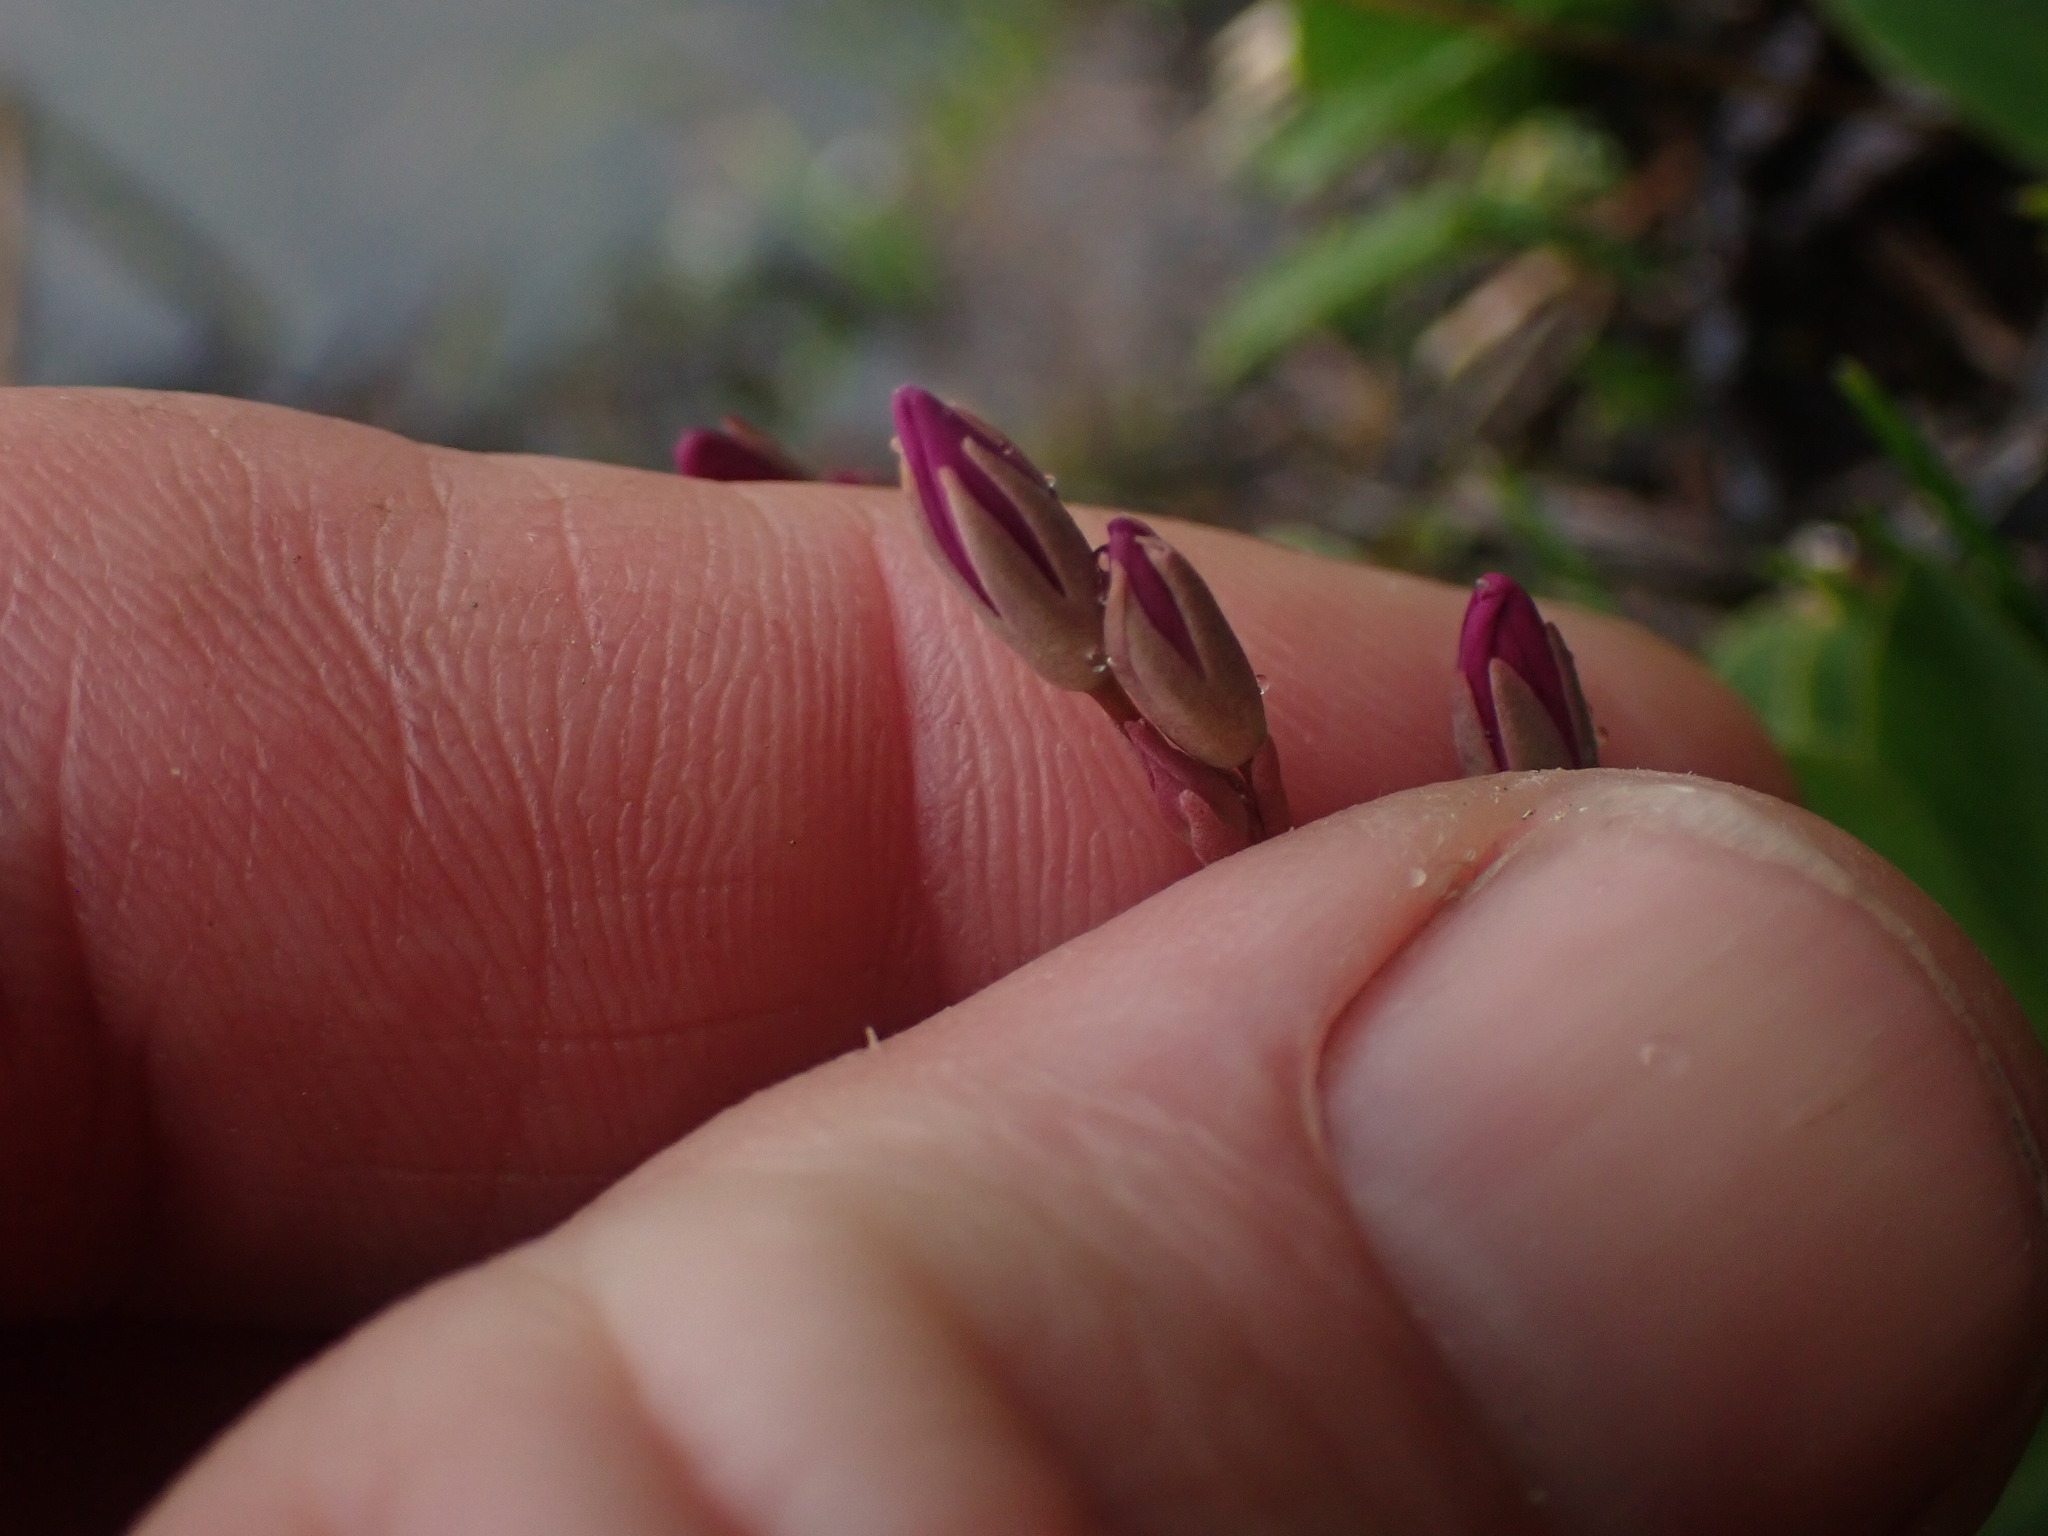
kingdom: Plantae
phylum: Tracheophyta
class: Magnoliopsida
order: Ericales
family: Primulaceae
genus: Dodecatheon
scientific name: Dodecatheon pulchellum
